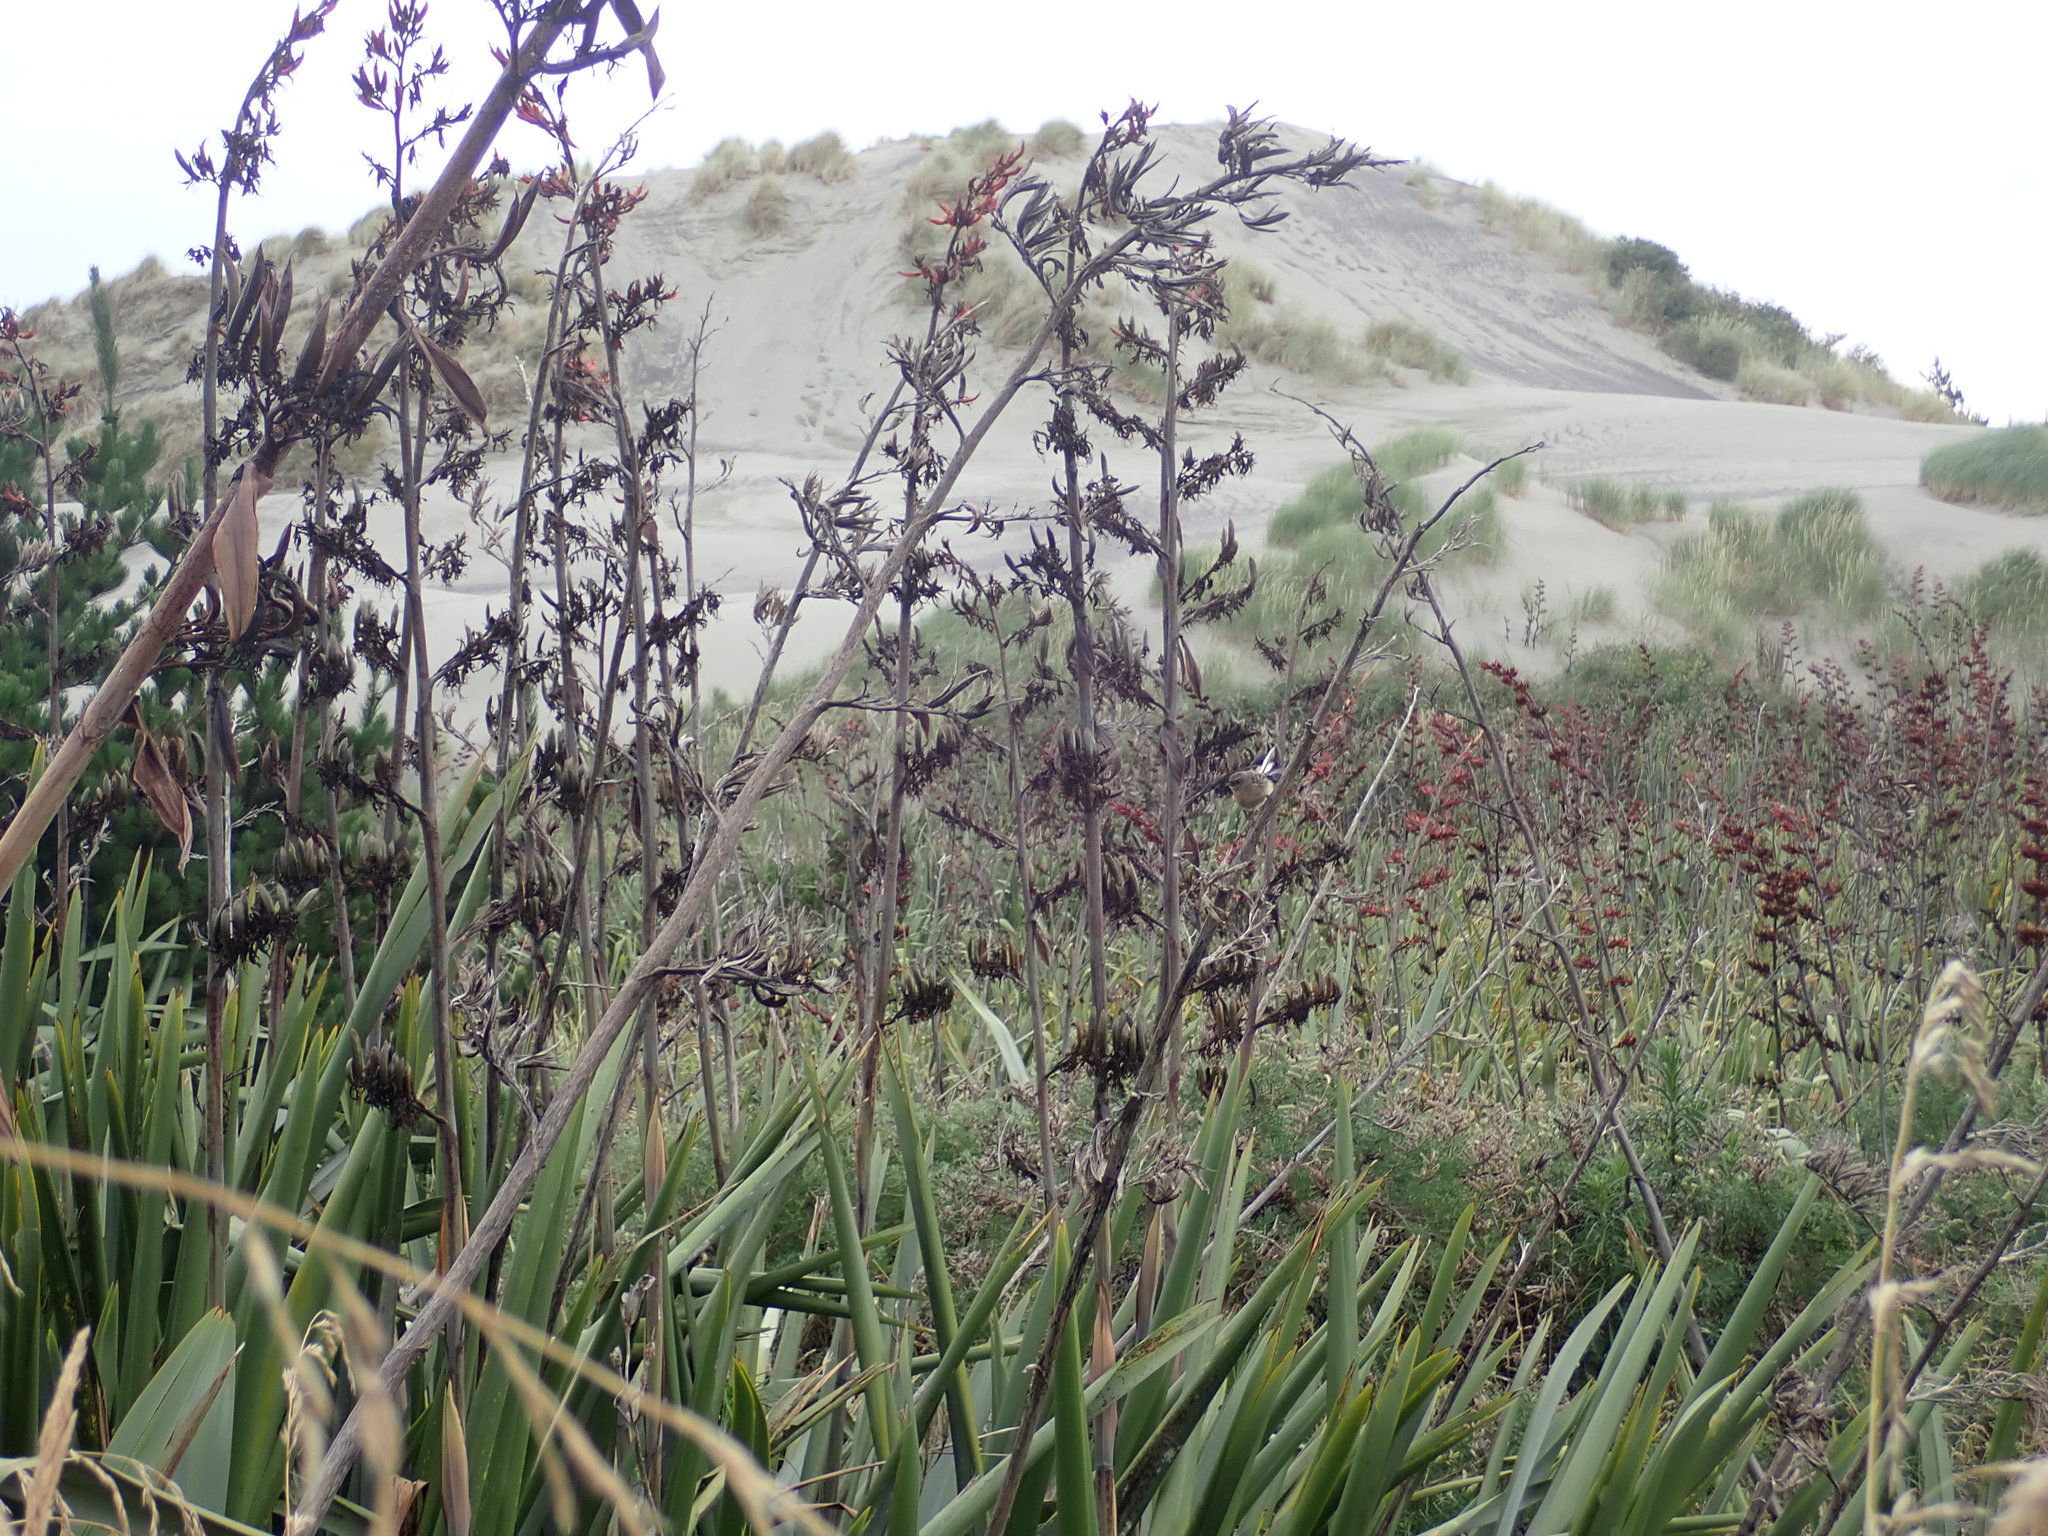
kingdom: Animalia
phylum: Chordata
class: Aves
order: Passeriformes
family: Rhipiduridae
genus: Rhipidura
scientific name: Rhipidura fuliginosa
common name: New zealand fantail
